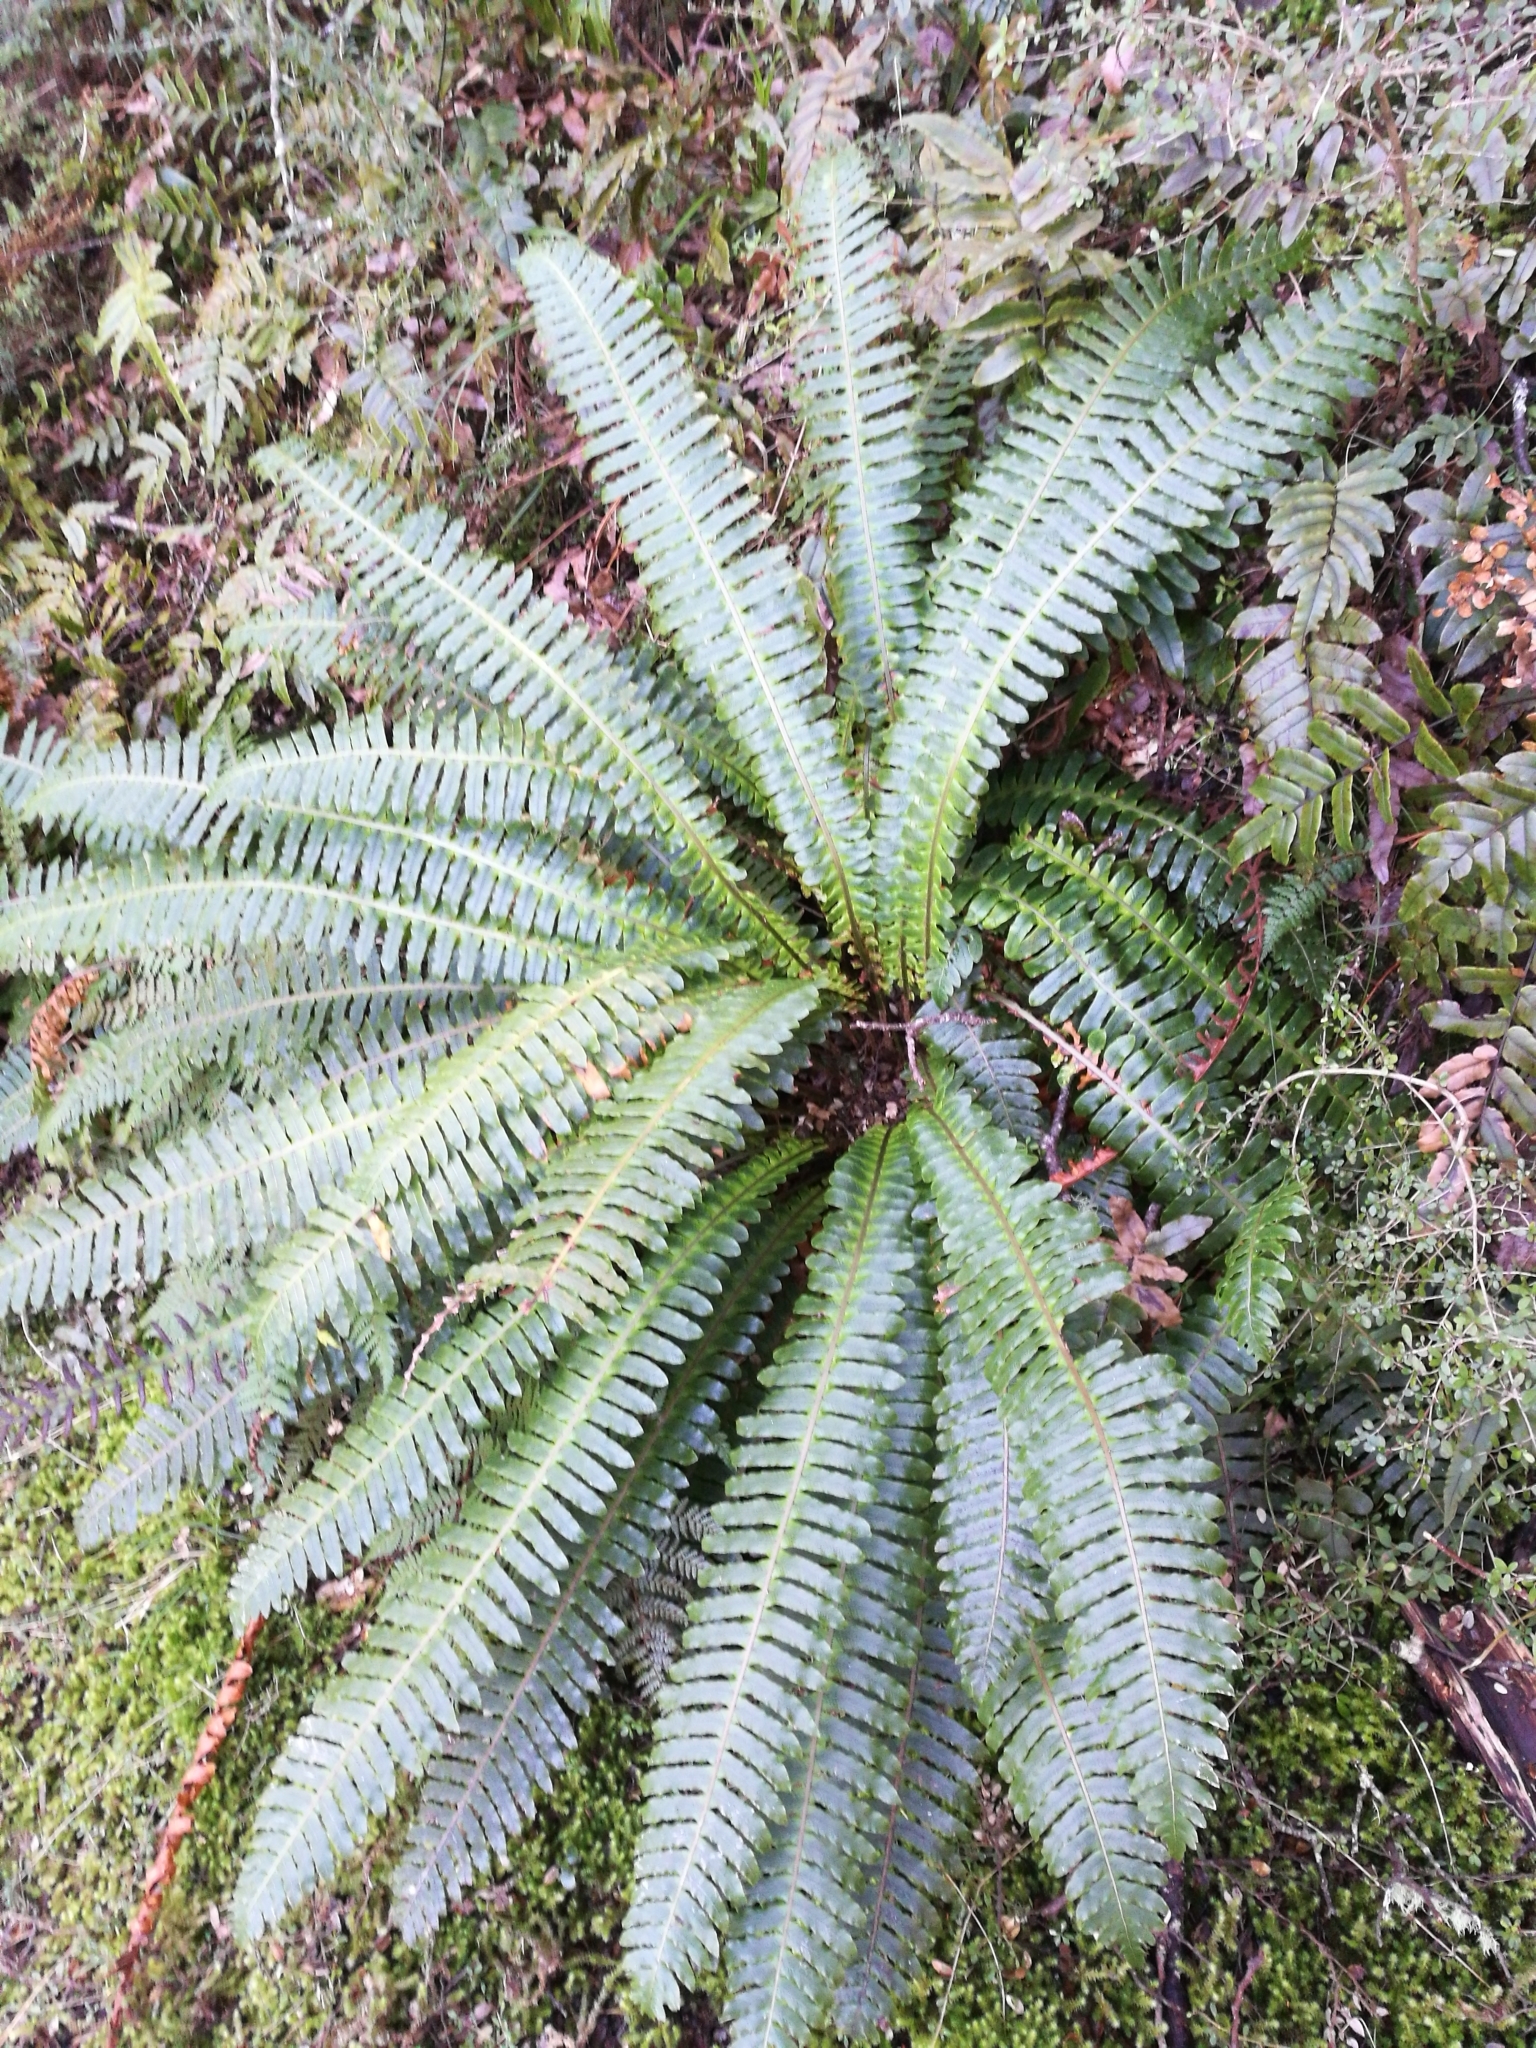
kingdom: Plantae
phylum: Tracheophyta
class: Polypodiopsida
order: Polypodiales
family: Blechnaceae
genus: Lomaria
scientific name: Lomaria discolor
